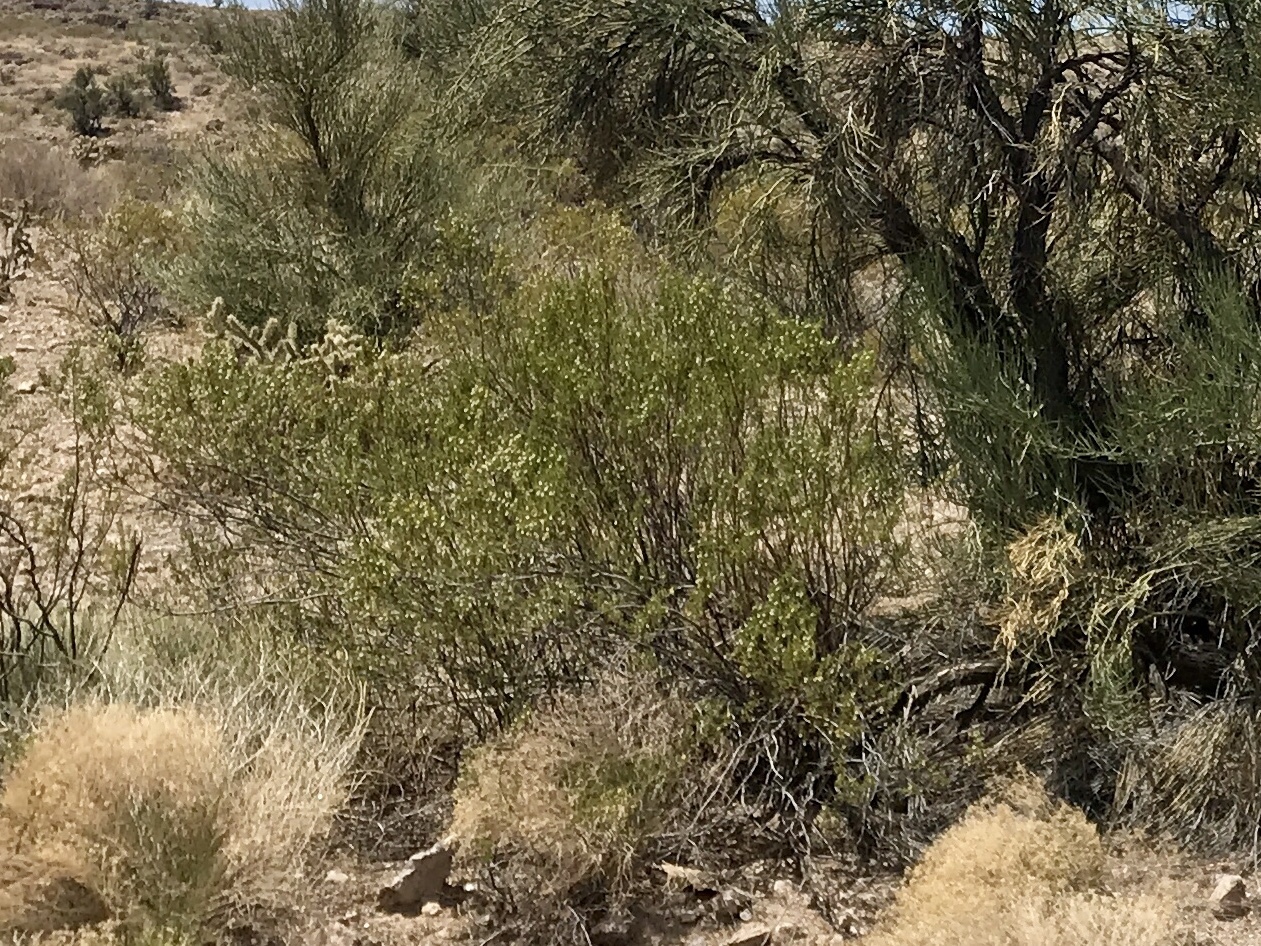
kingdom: Plantae
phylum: Tracheophyta
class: Magnoliopsida
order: Zygophyllales
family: Zygophyllaceae
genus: Larrea
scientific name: Larrea tridentata
